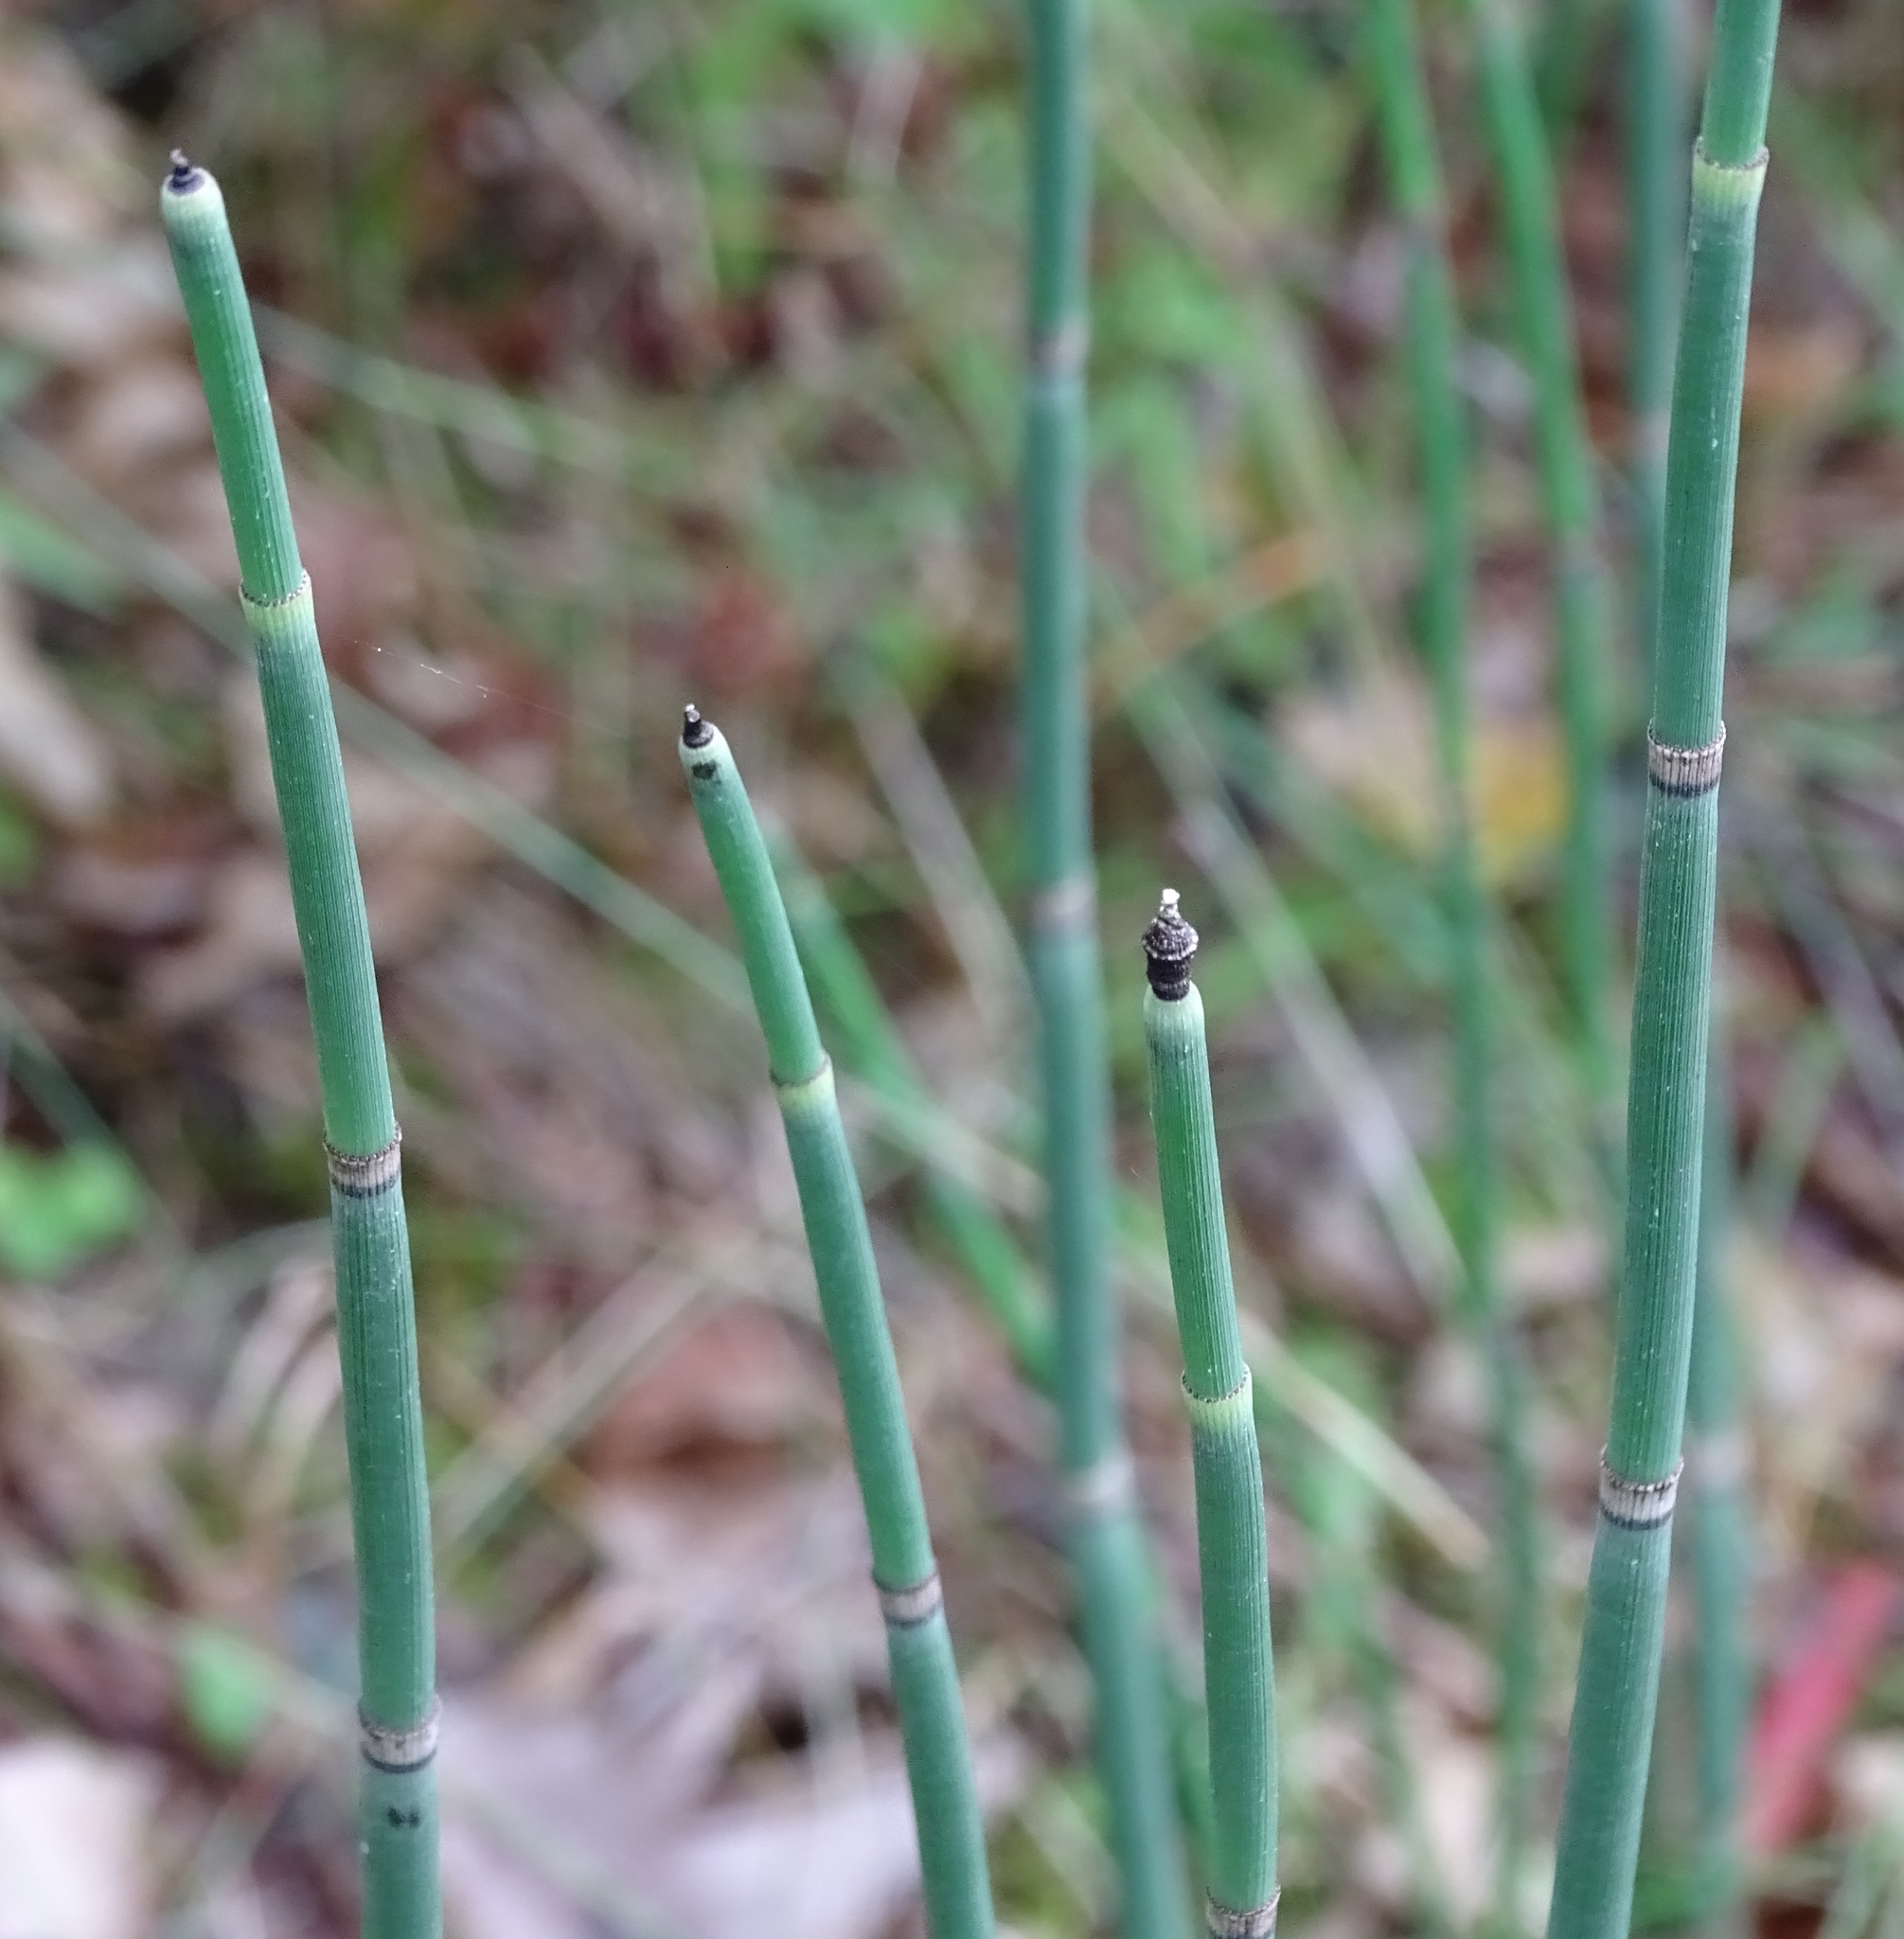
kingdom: Plantae
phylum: Tracheophyta
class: Polypodiopsida
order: Equisetales
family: Equisetaceae
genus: Equisetum
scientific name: Equisetum hyemale
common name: Rough horsetail
